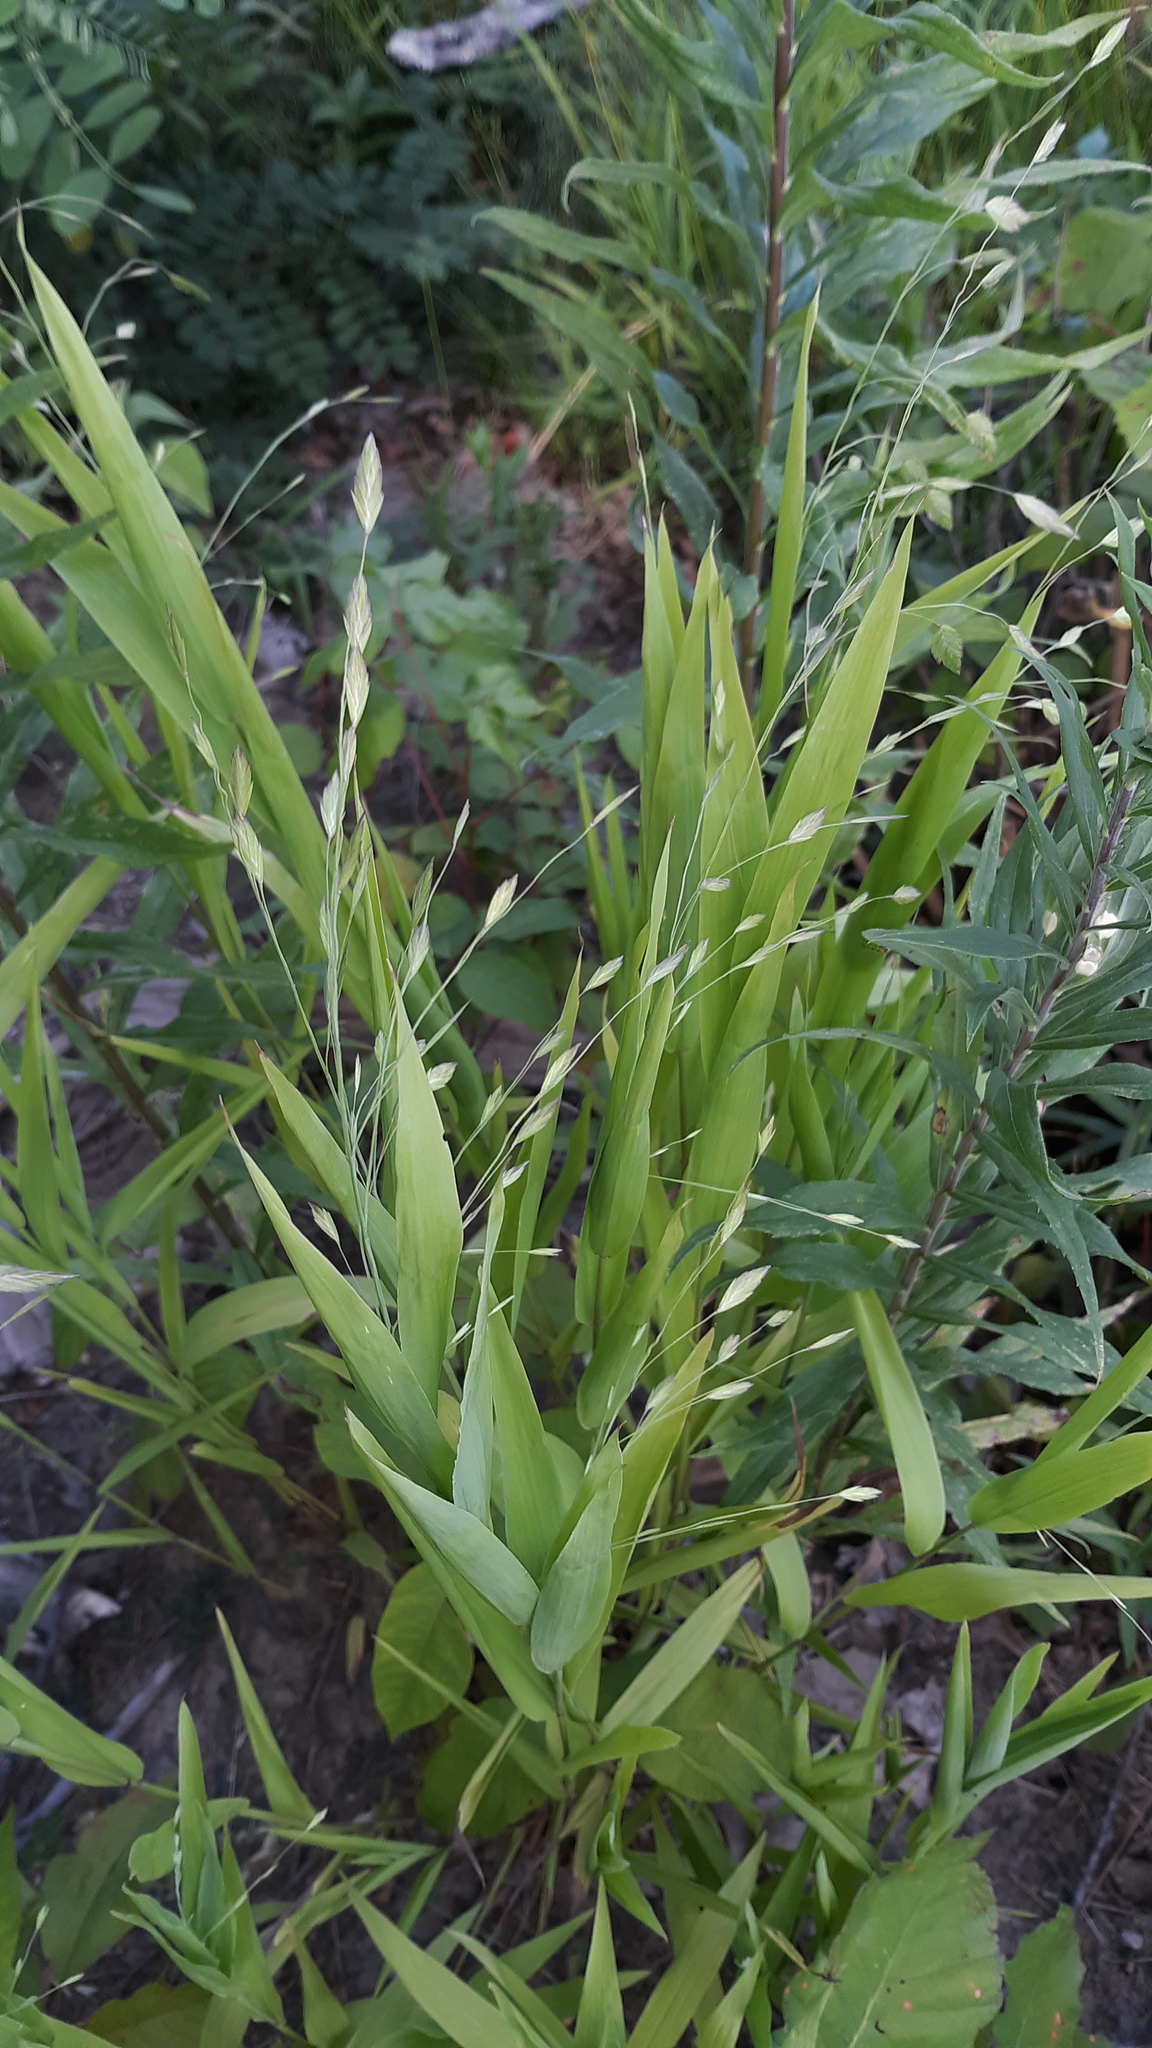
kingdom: Plantae
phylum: Tracheophyta
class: Liliopsida
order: Poales
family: Poaceae
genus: Chasmanthium
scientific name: Chasmanthium latifolium
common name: Broad-leaved chasmanthium
